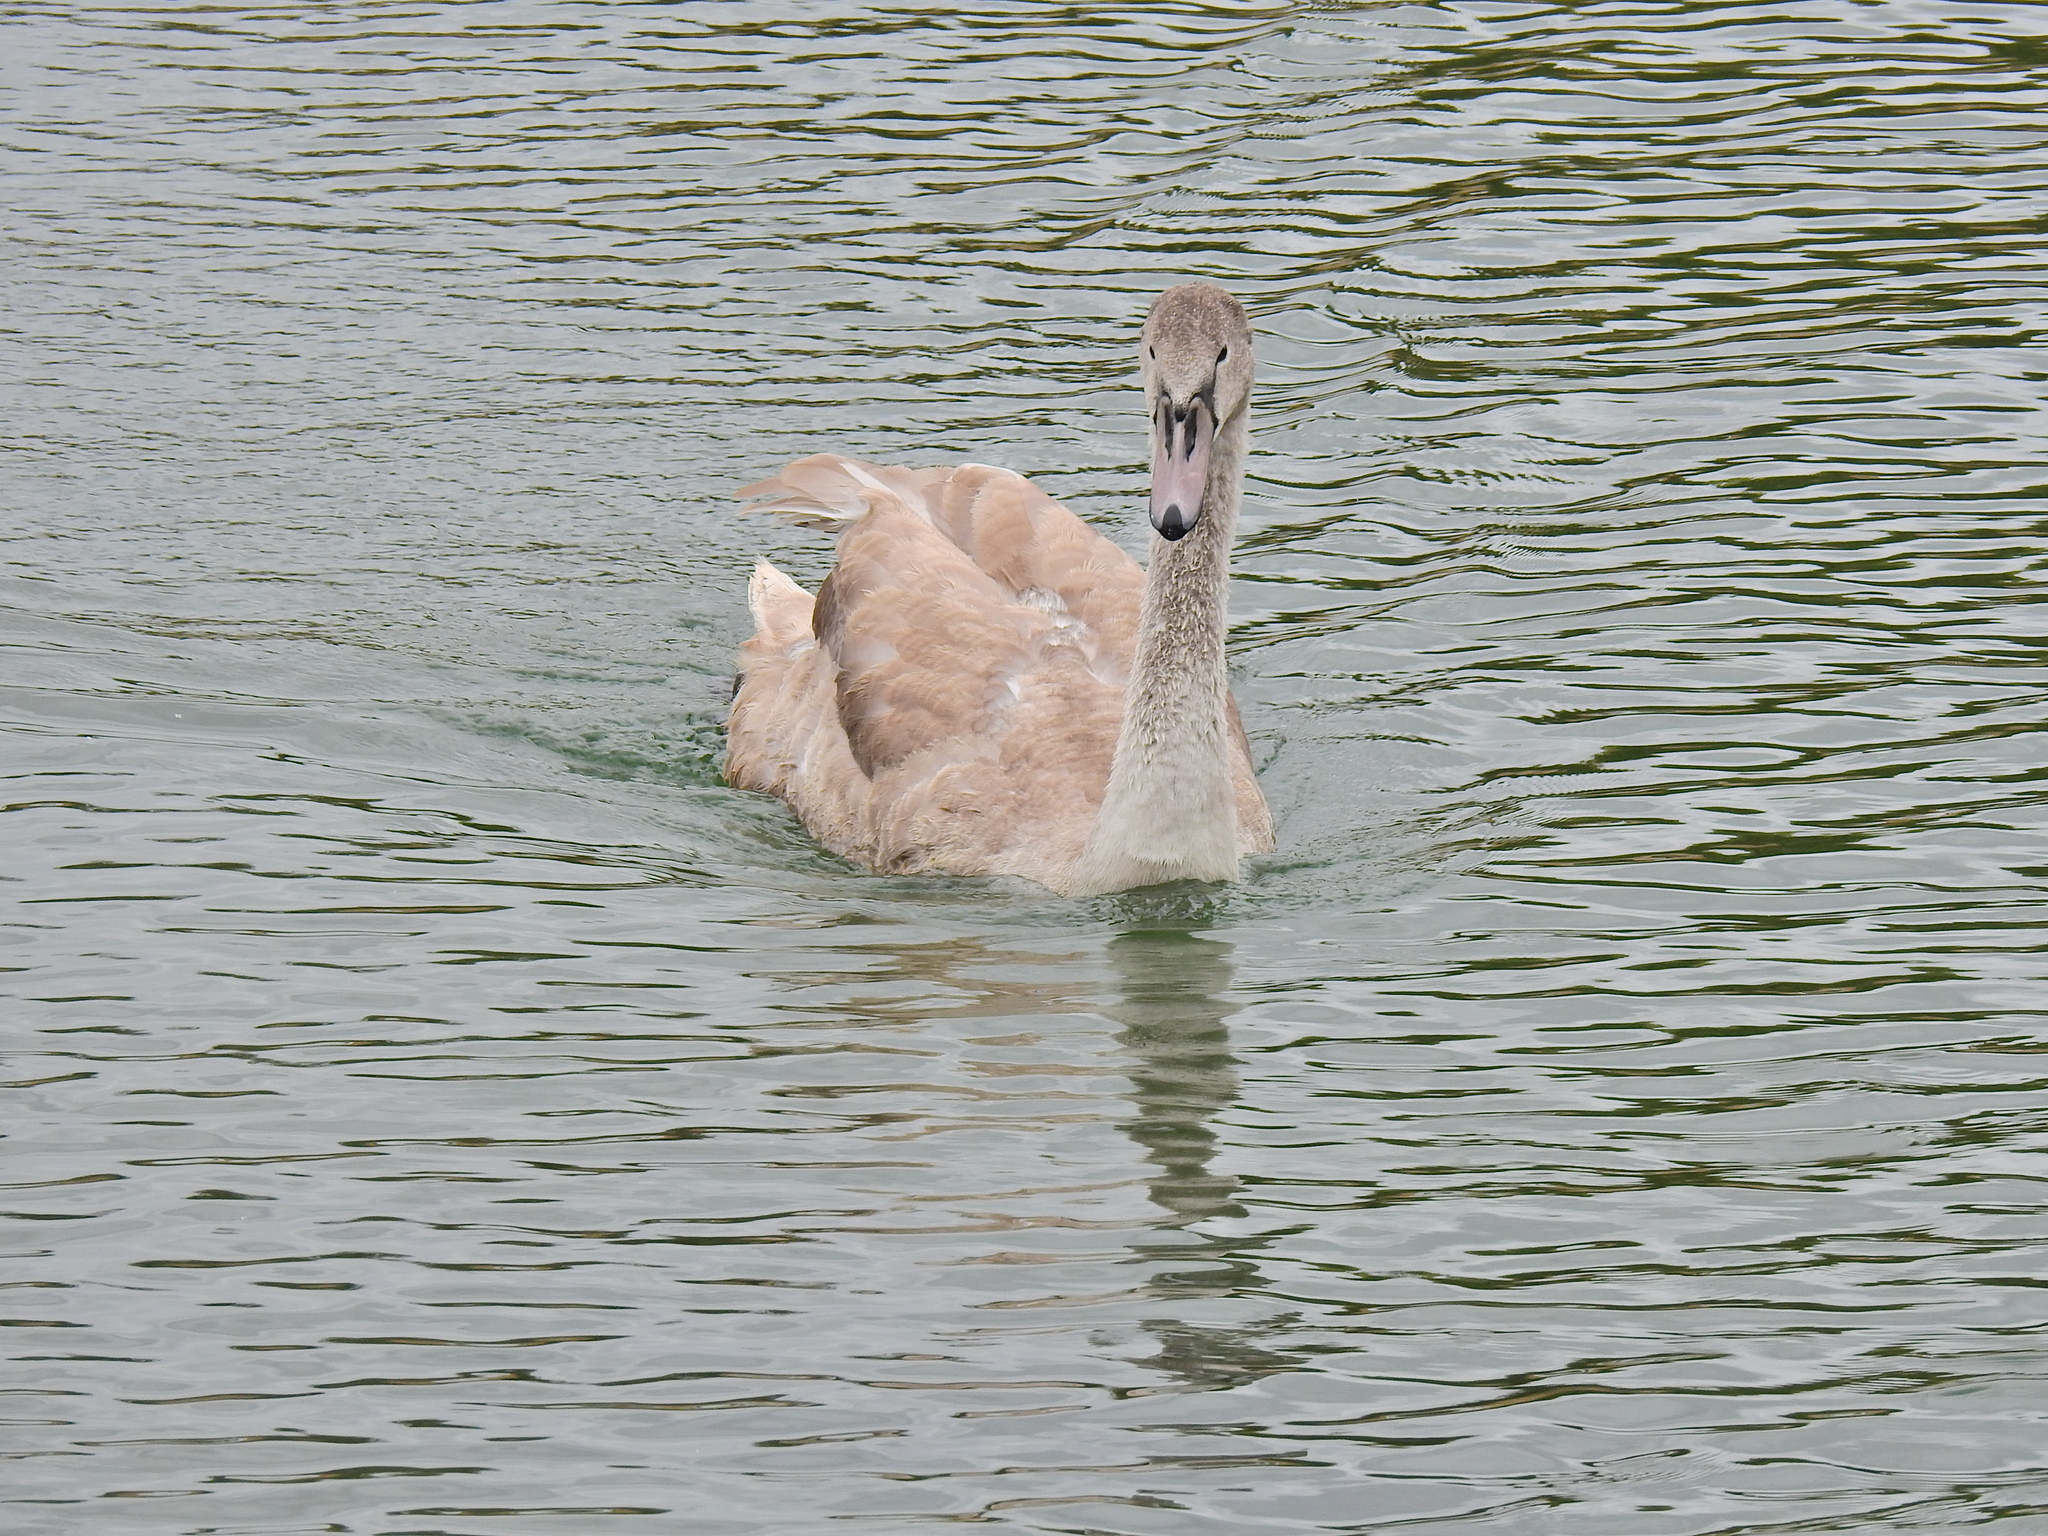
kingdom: Animalia
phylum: Chordata
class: Aves
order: Anseriformes
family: Anatidae
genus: Cygnus
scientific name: Cygnus olor
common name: Mute swan
